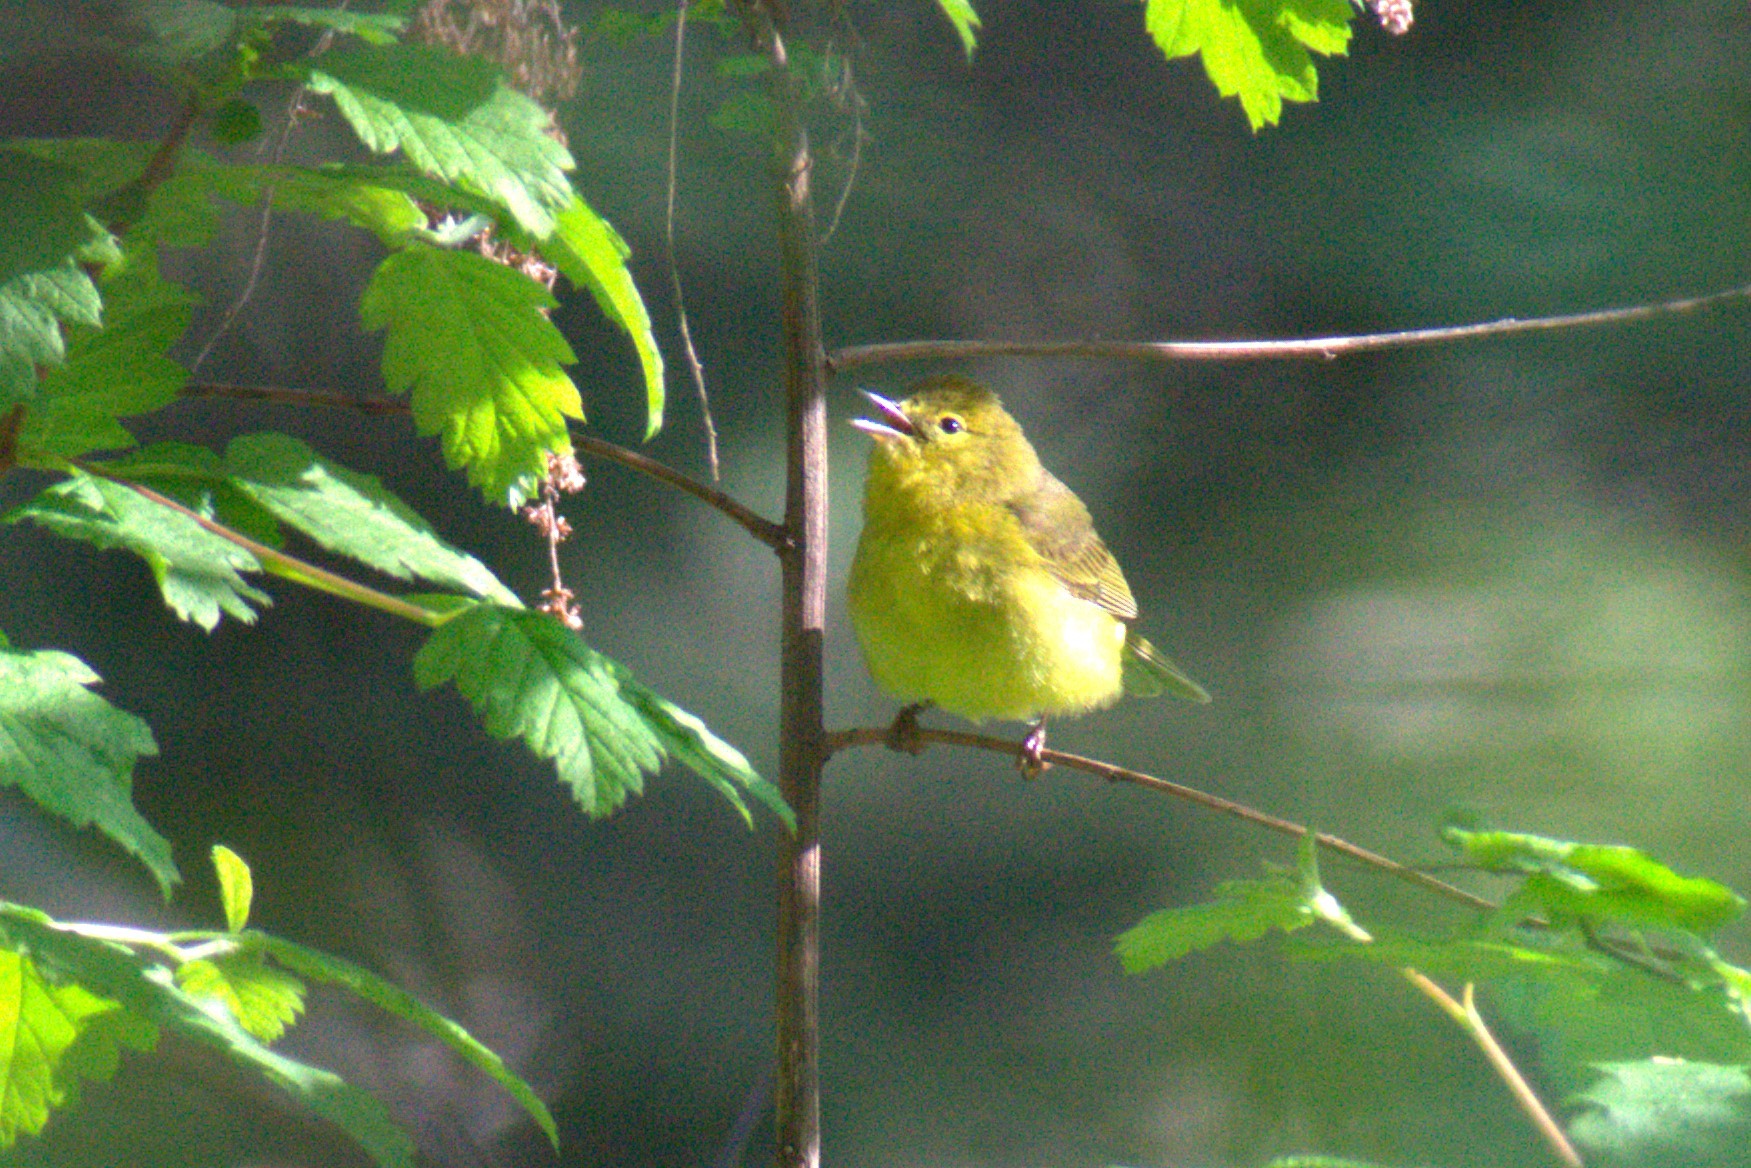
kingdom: Animalia
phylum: Chordata
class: Aves
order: Passeriformes
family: Parulidae
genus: Leiothlypis
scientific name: Leiothlypis celata
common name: Orange-crowned warbler
